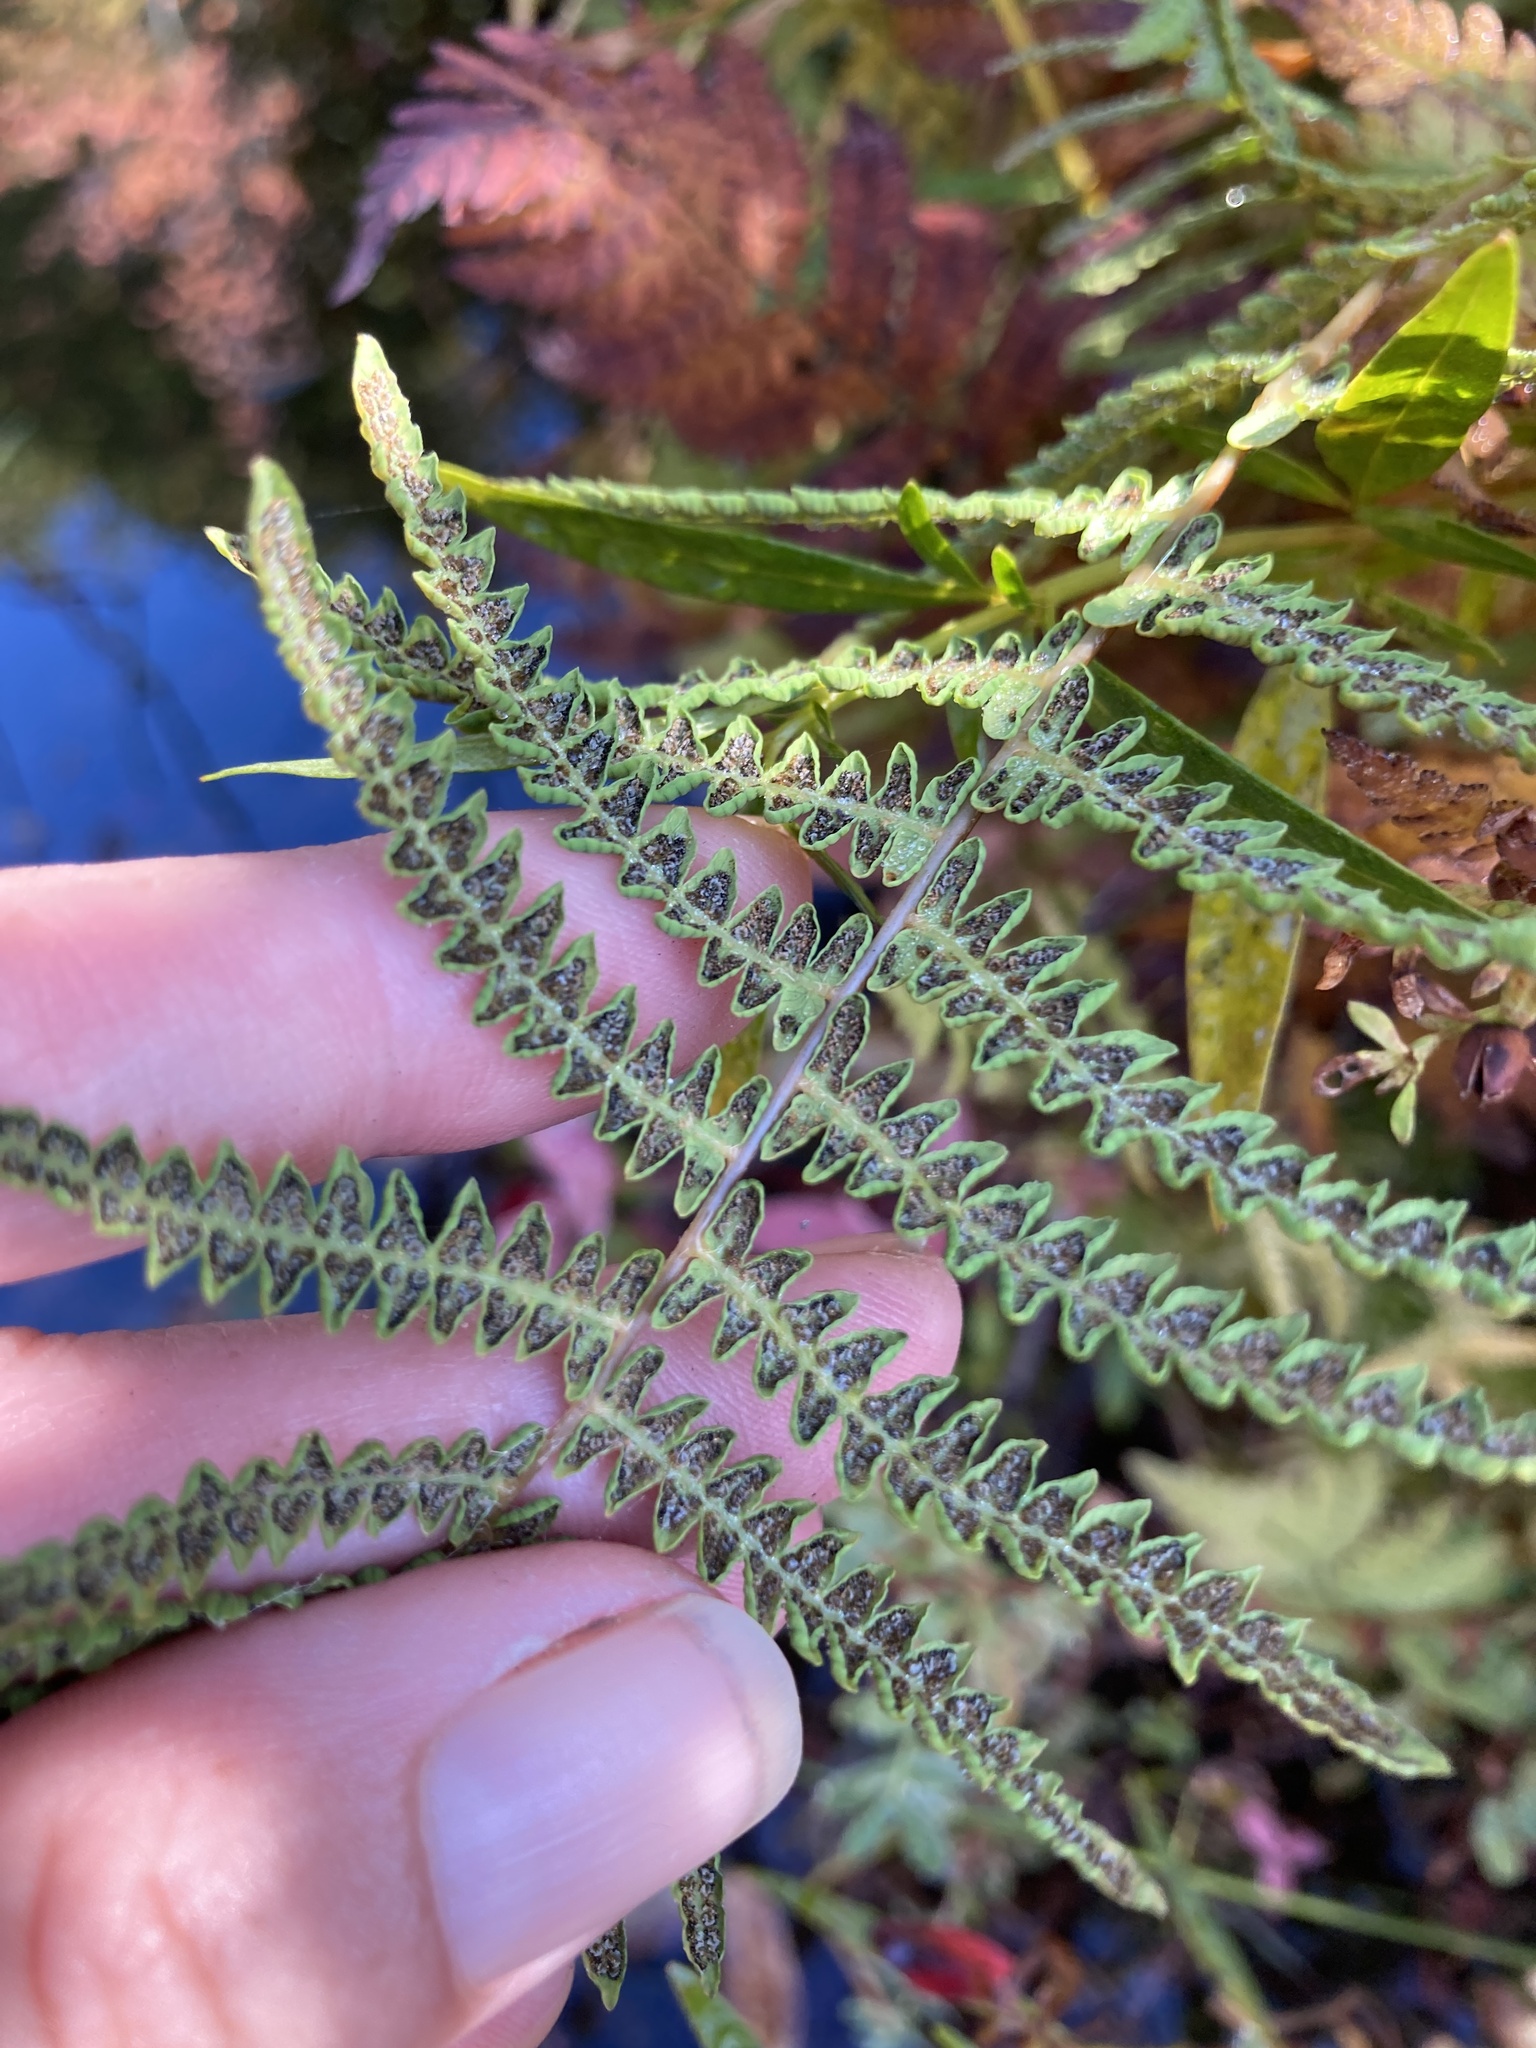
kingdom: Plantae
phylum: Tracheophyta
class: Polypodiopsida
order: Polypodiales
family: Thelypteridaceae
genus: Thelypteris
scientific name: Thelypteris palustris
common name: Marsh fern
